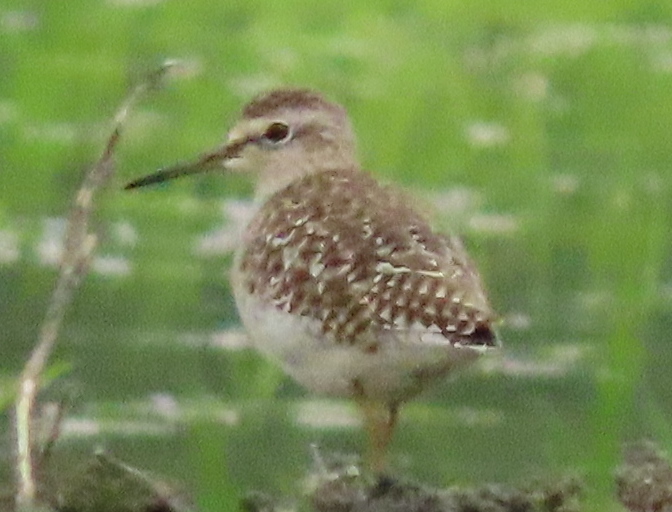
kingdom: Animalia
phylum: Chordata
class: Aves
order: Charadriiformes
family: Scolopacidae
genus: Tringa
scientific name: Tringa glareola
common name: Wood sandpiper
